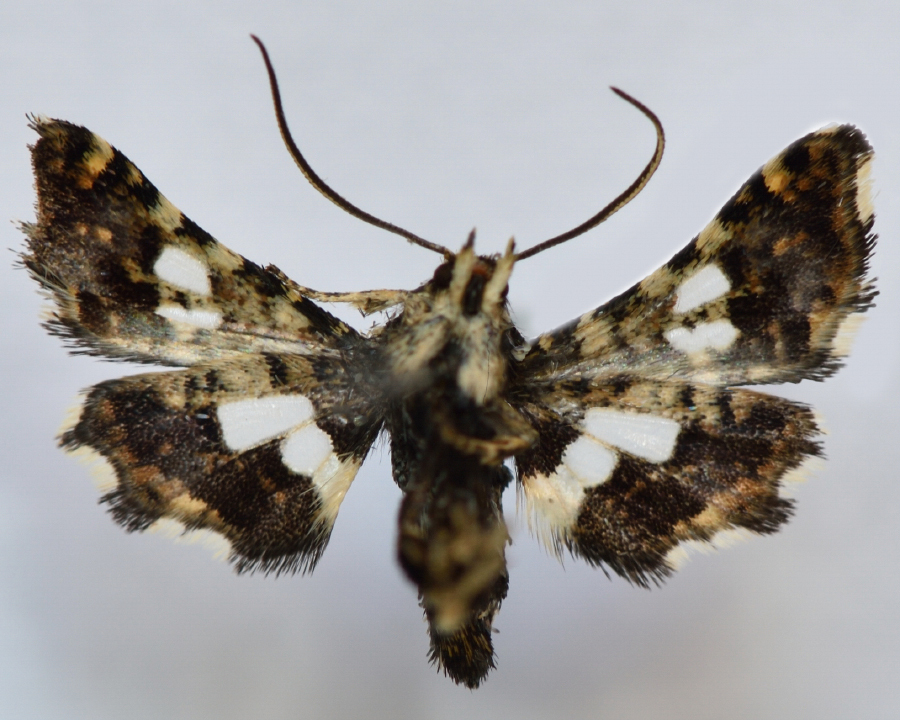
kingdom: Animalia
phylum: Arthropoda
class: Insecta
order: Lepidoptera
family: Thyrididae
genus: Thyris
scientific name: Thyris fenestrella
